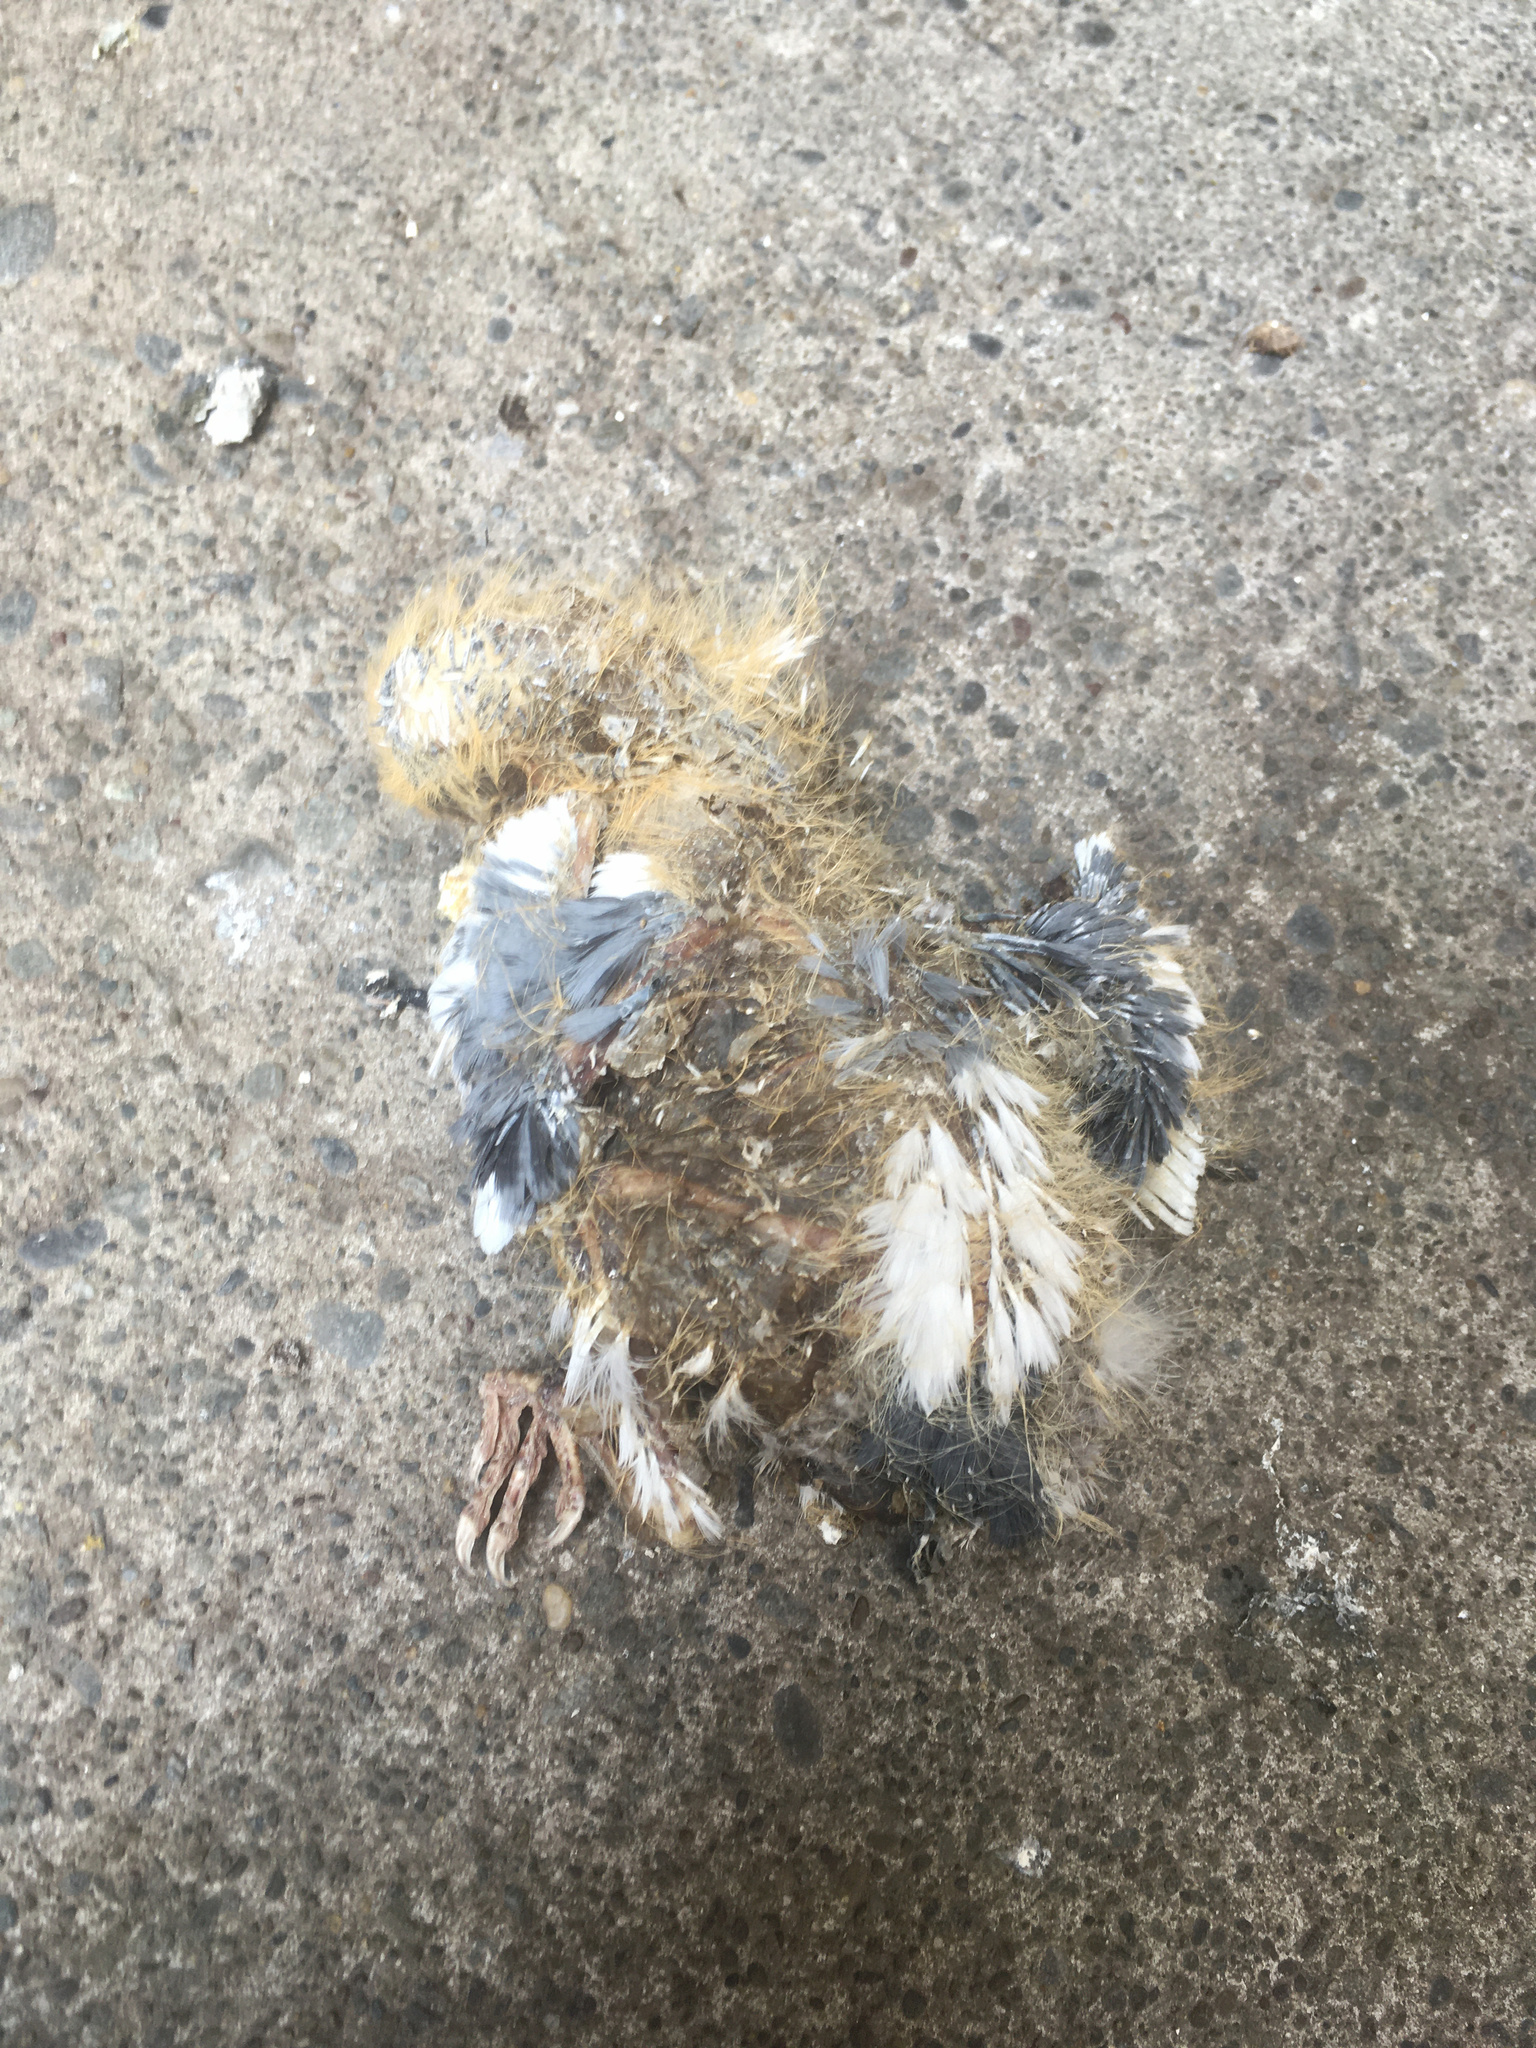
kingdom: Animalia
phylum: Chordata
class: Aves
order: Columbiformes
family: Columbidae
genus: Columba
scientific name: Columba livia
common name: Rock pigeon
